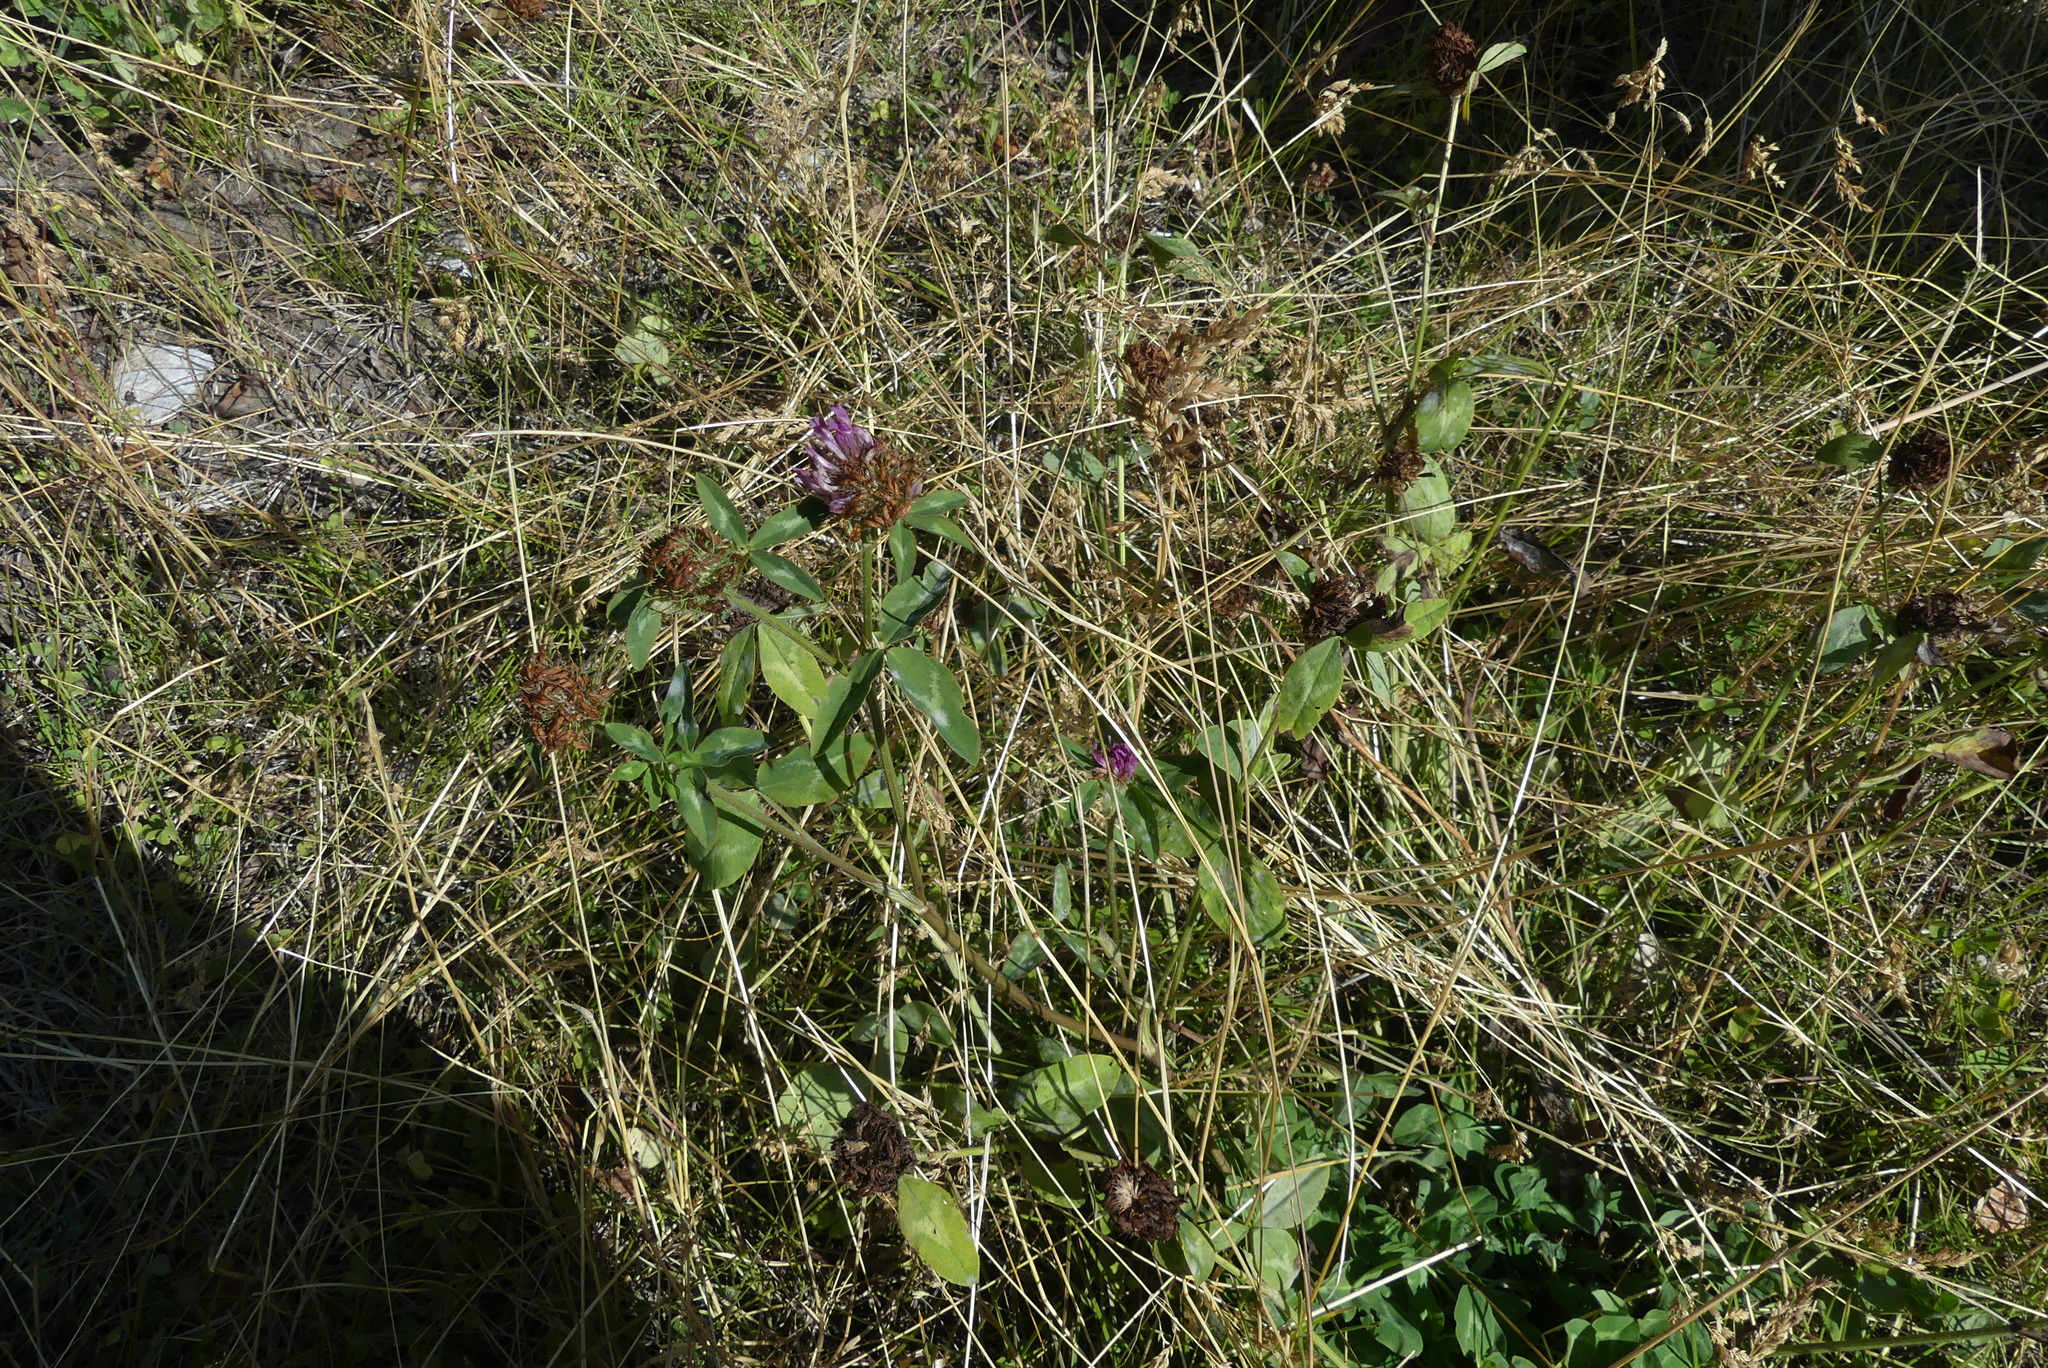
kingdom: Plantae
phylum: Tracheophyta
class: Magnoliopsida
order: Fabales
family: Fabaceae
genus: Trifolium
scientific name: Trifolium pratense
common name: Red clover
